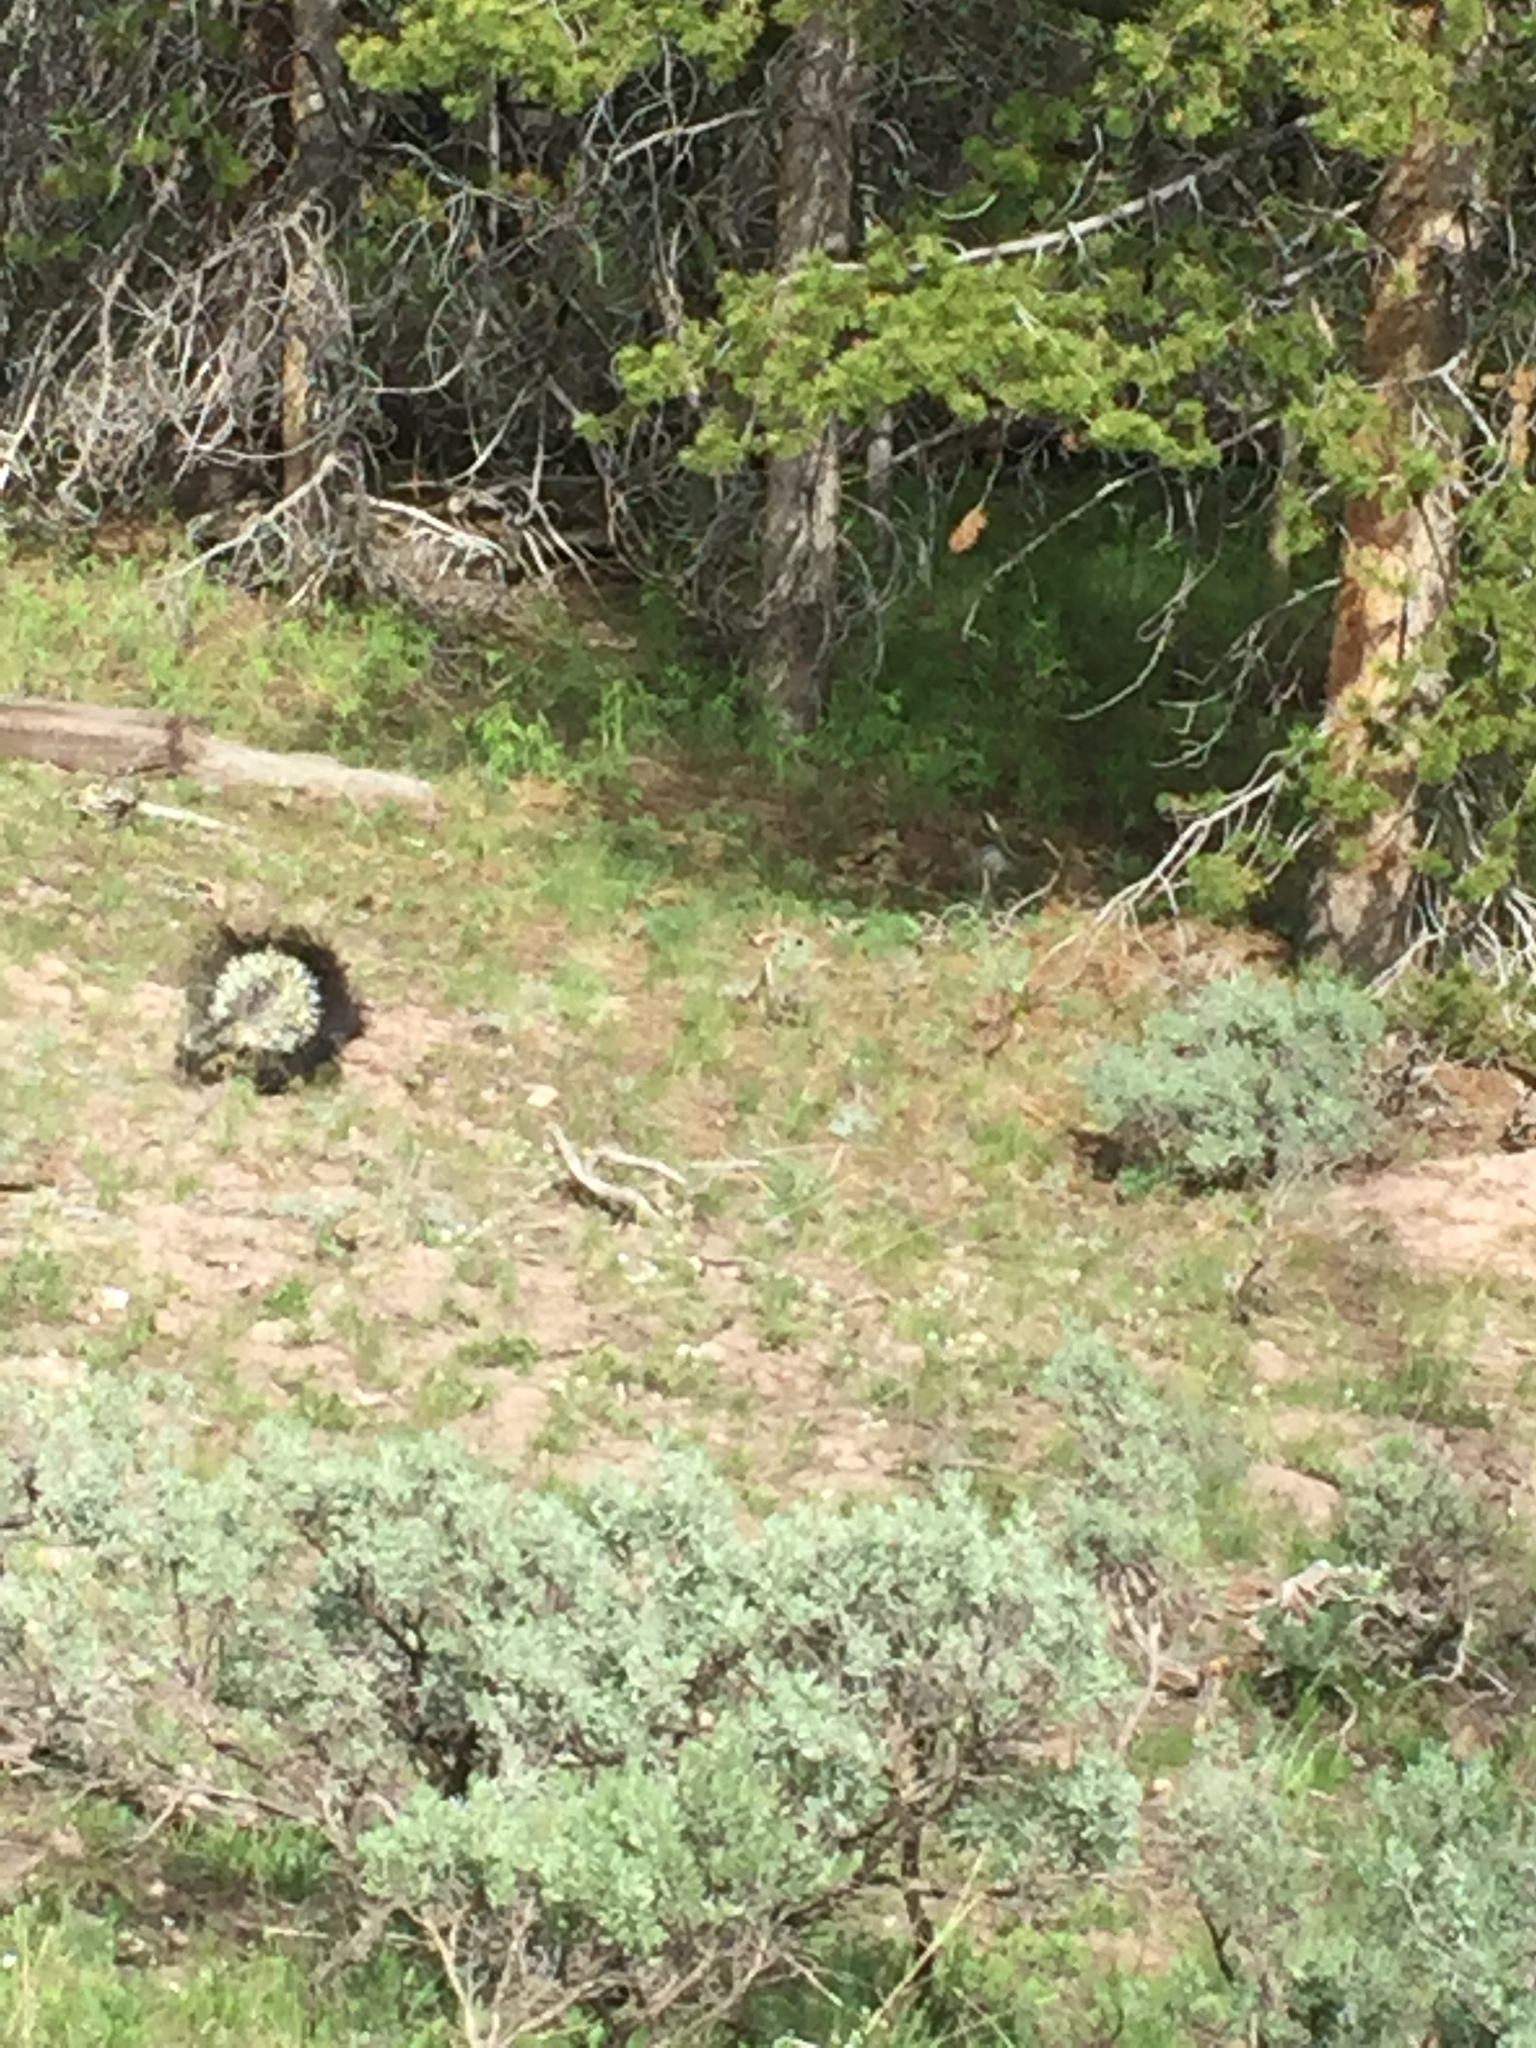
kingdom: Animalia
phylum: Chordata
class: Mammalia
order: Rodentia
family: Erethizontidae
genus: Erethizon
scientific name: Erethizon dorsatus
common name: North american porcupine
